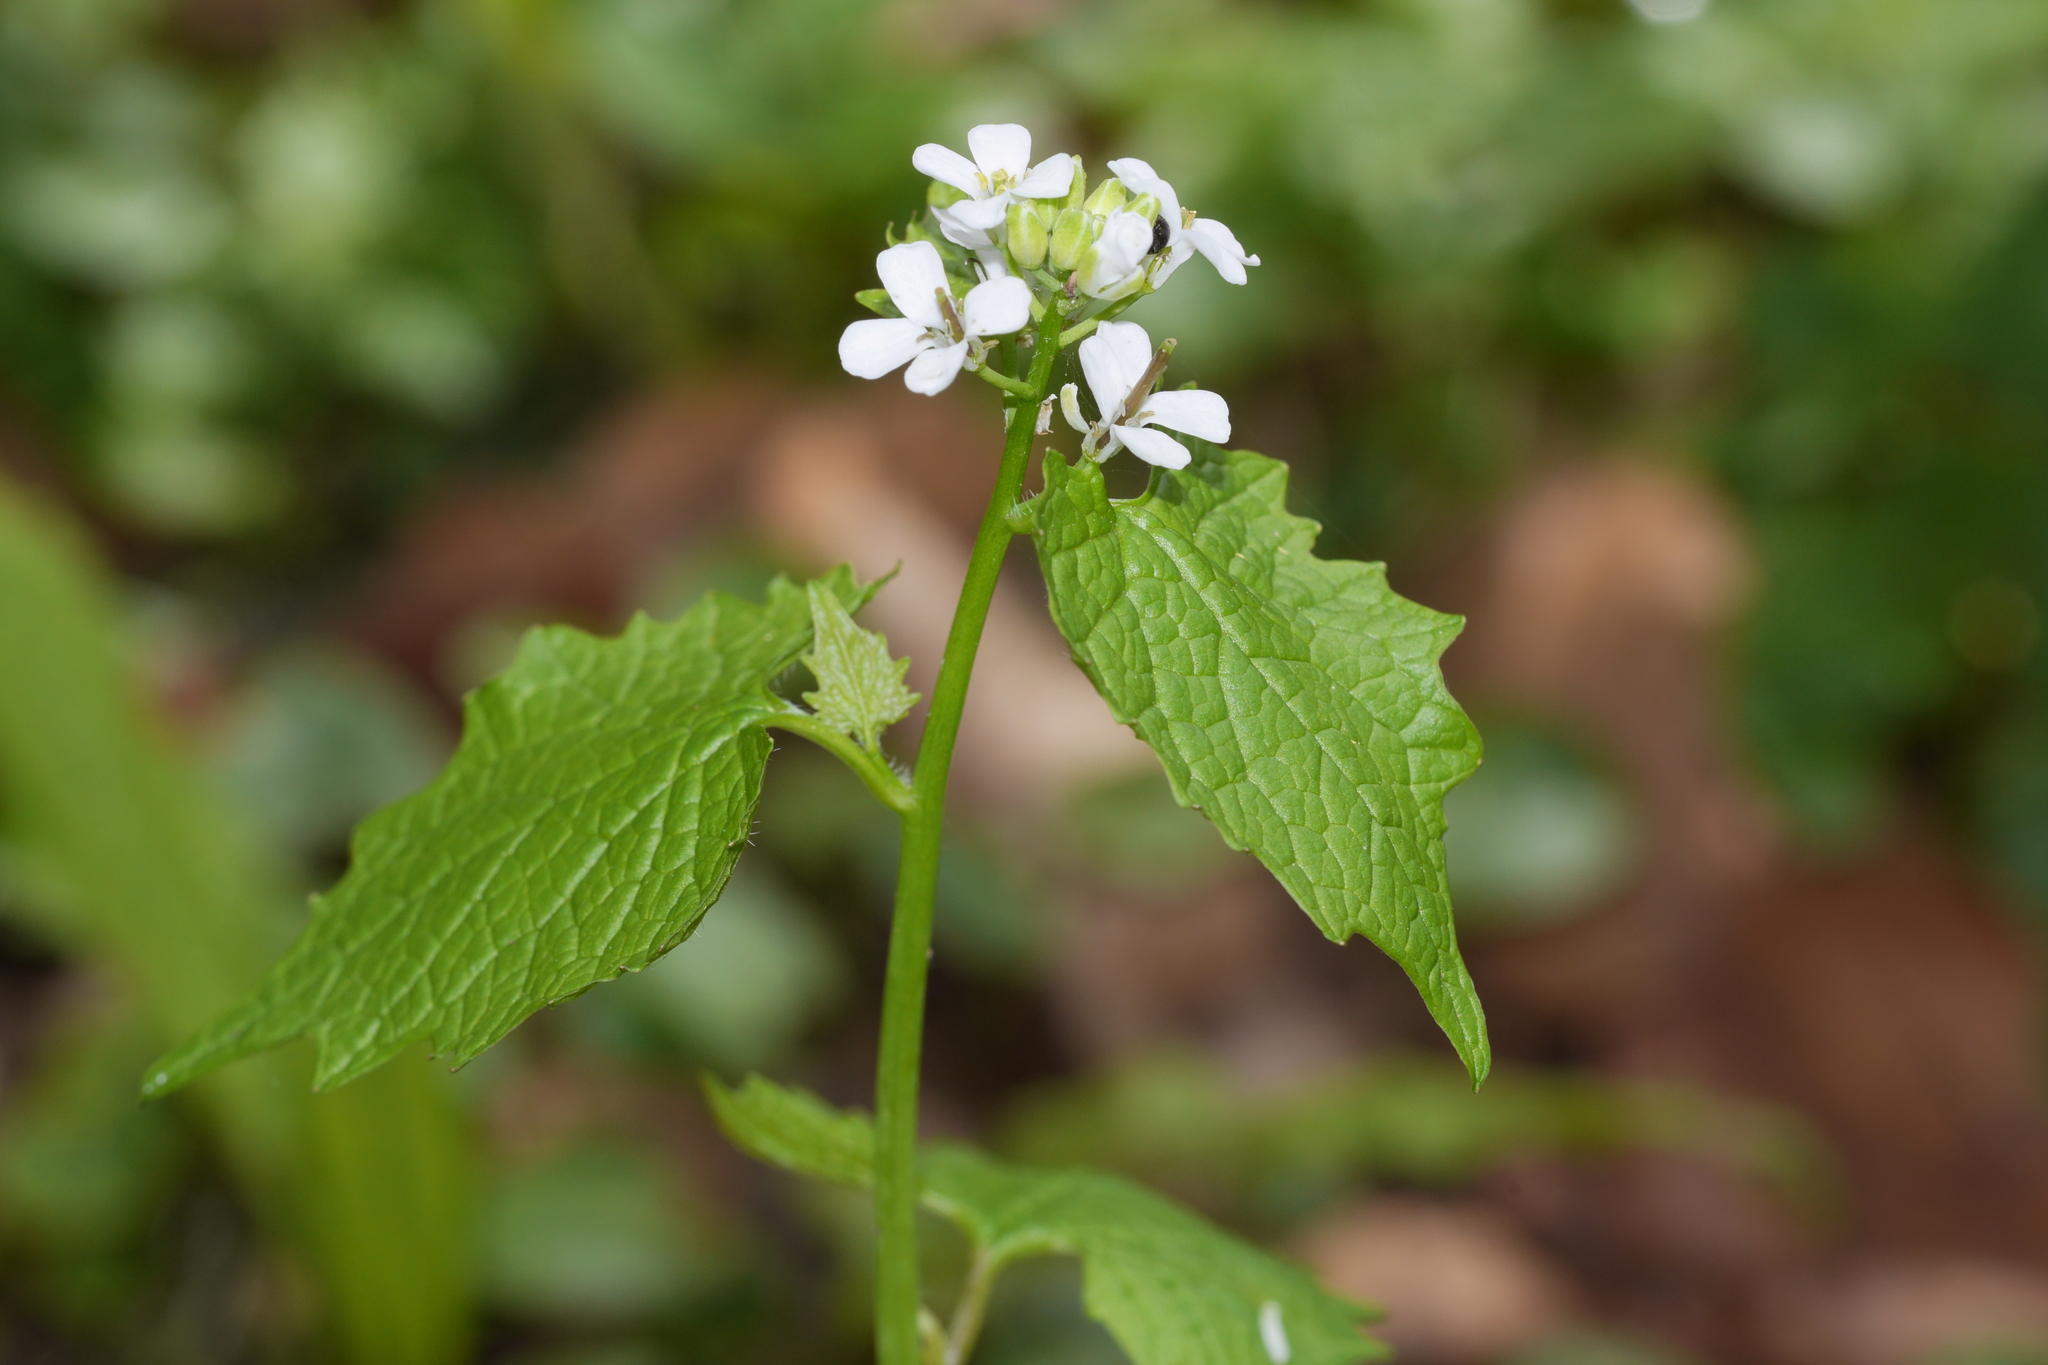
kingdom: Plantae
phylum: Tracheophyta
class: Magnoliopsida
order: Brassicales
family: Brassicaceae
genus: Alliaria
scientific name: Alliaria petiolata
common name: Garlic mustard
